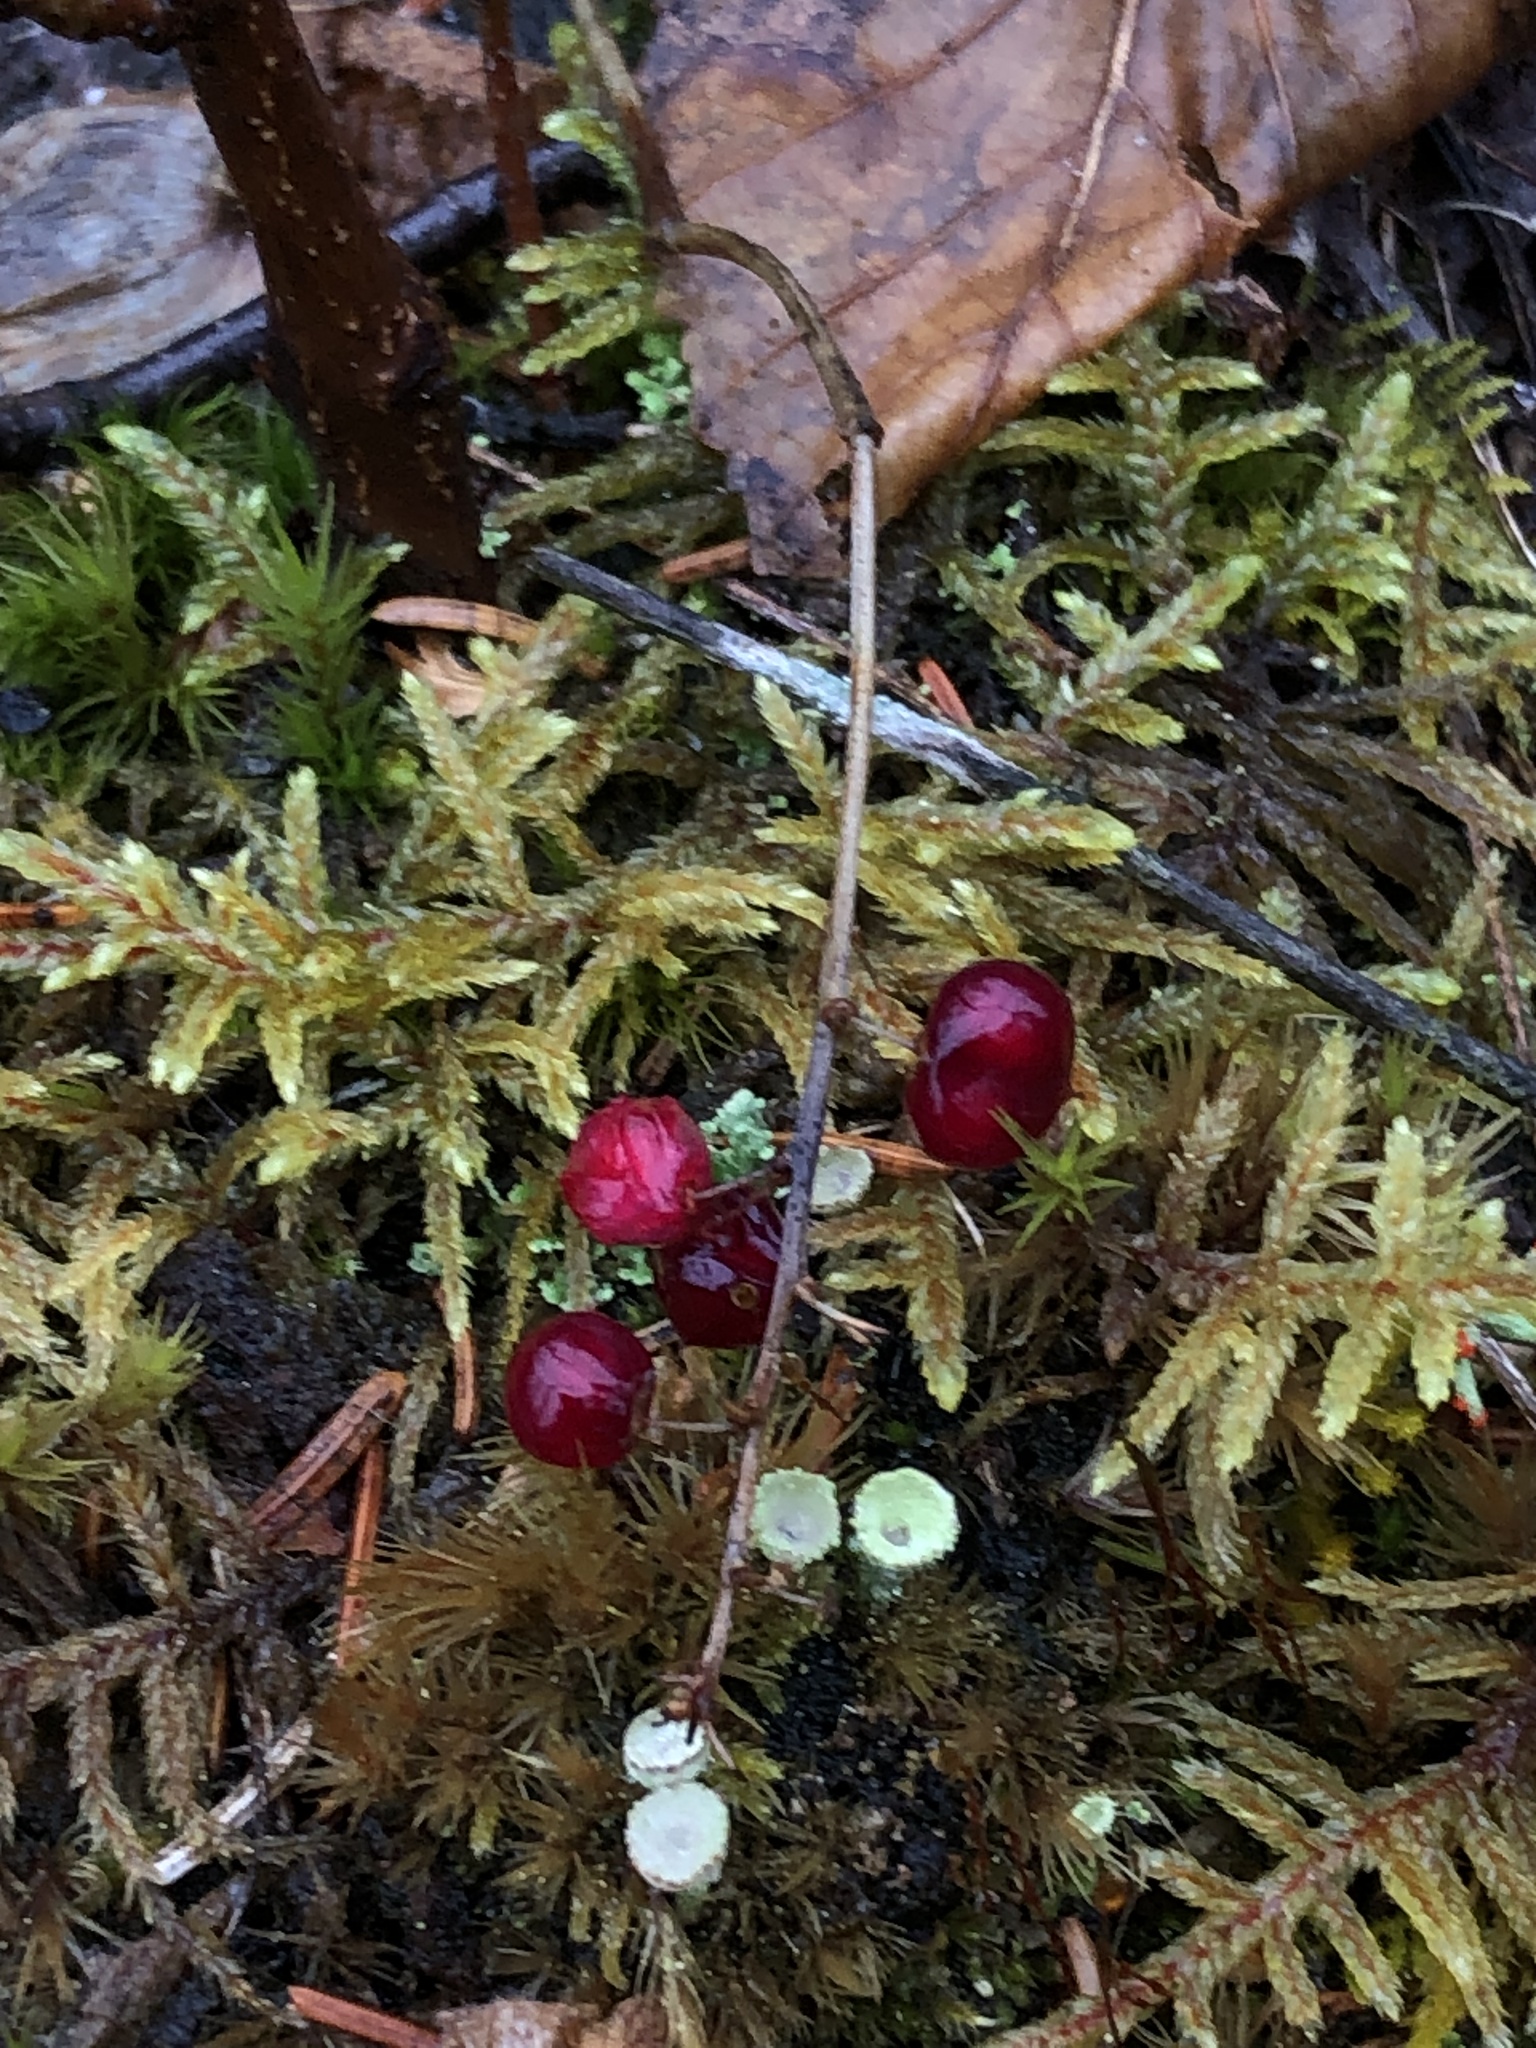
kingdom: Plantae
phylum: Tracheophyta
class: Liliopsida
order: Asparagales
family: Asparagaceae
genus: Maianthemum
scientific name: Maianthemum canadense
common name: False lily-of-the-valley
